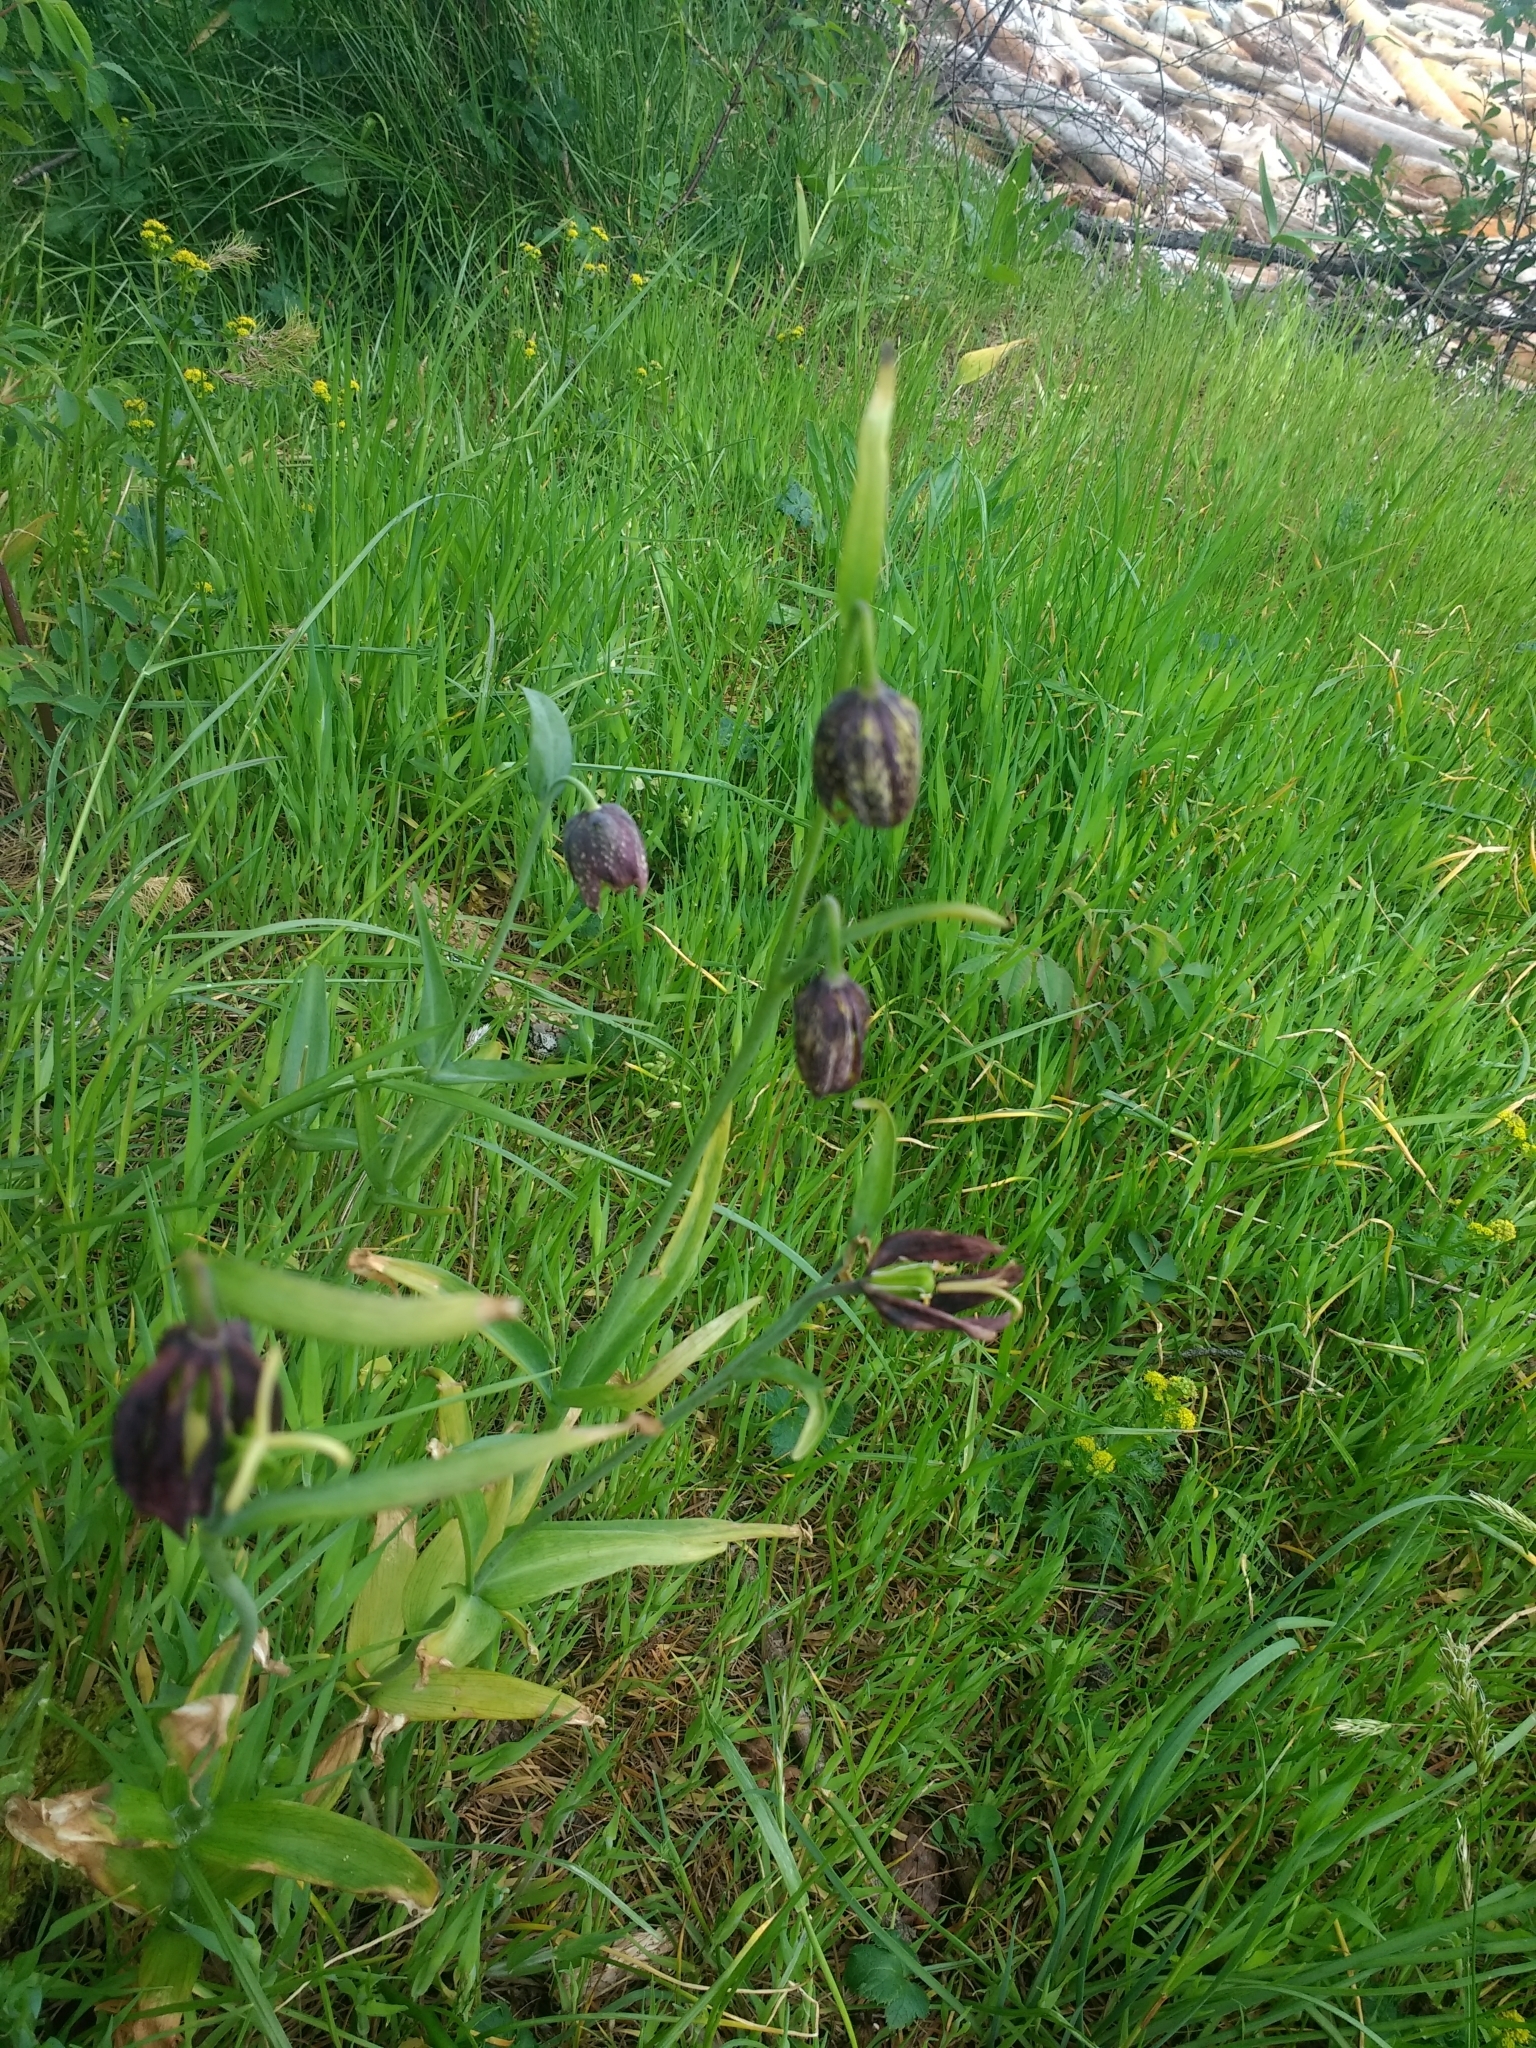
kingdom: Plantae
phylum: Tracheophyta
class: Liliopsida
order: Liliales
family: Liliaceae
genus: Fritillaria
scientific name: Fritillaria affinis
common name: Ojai fritillary
